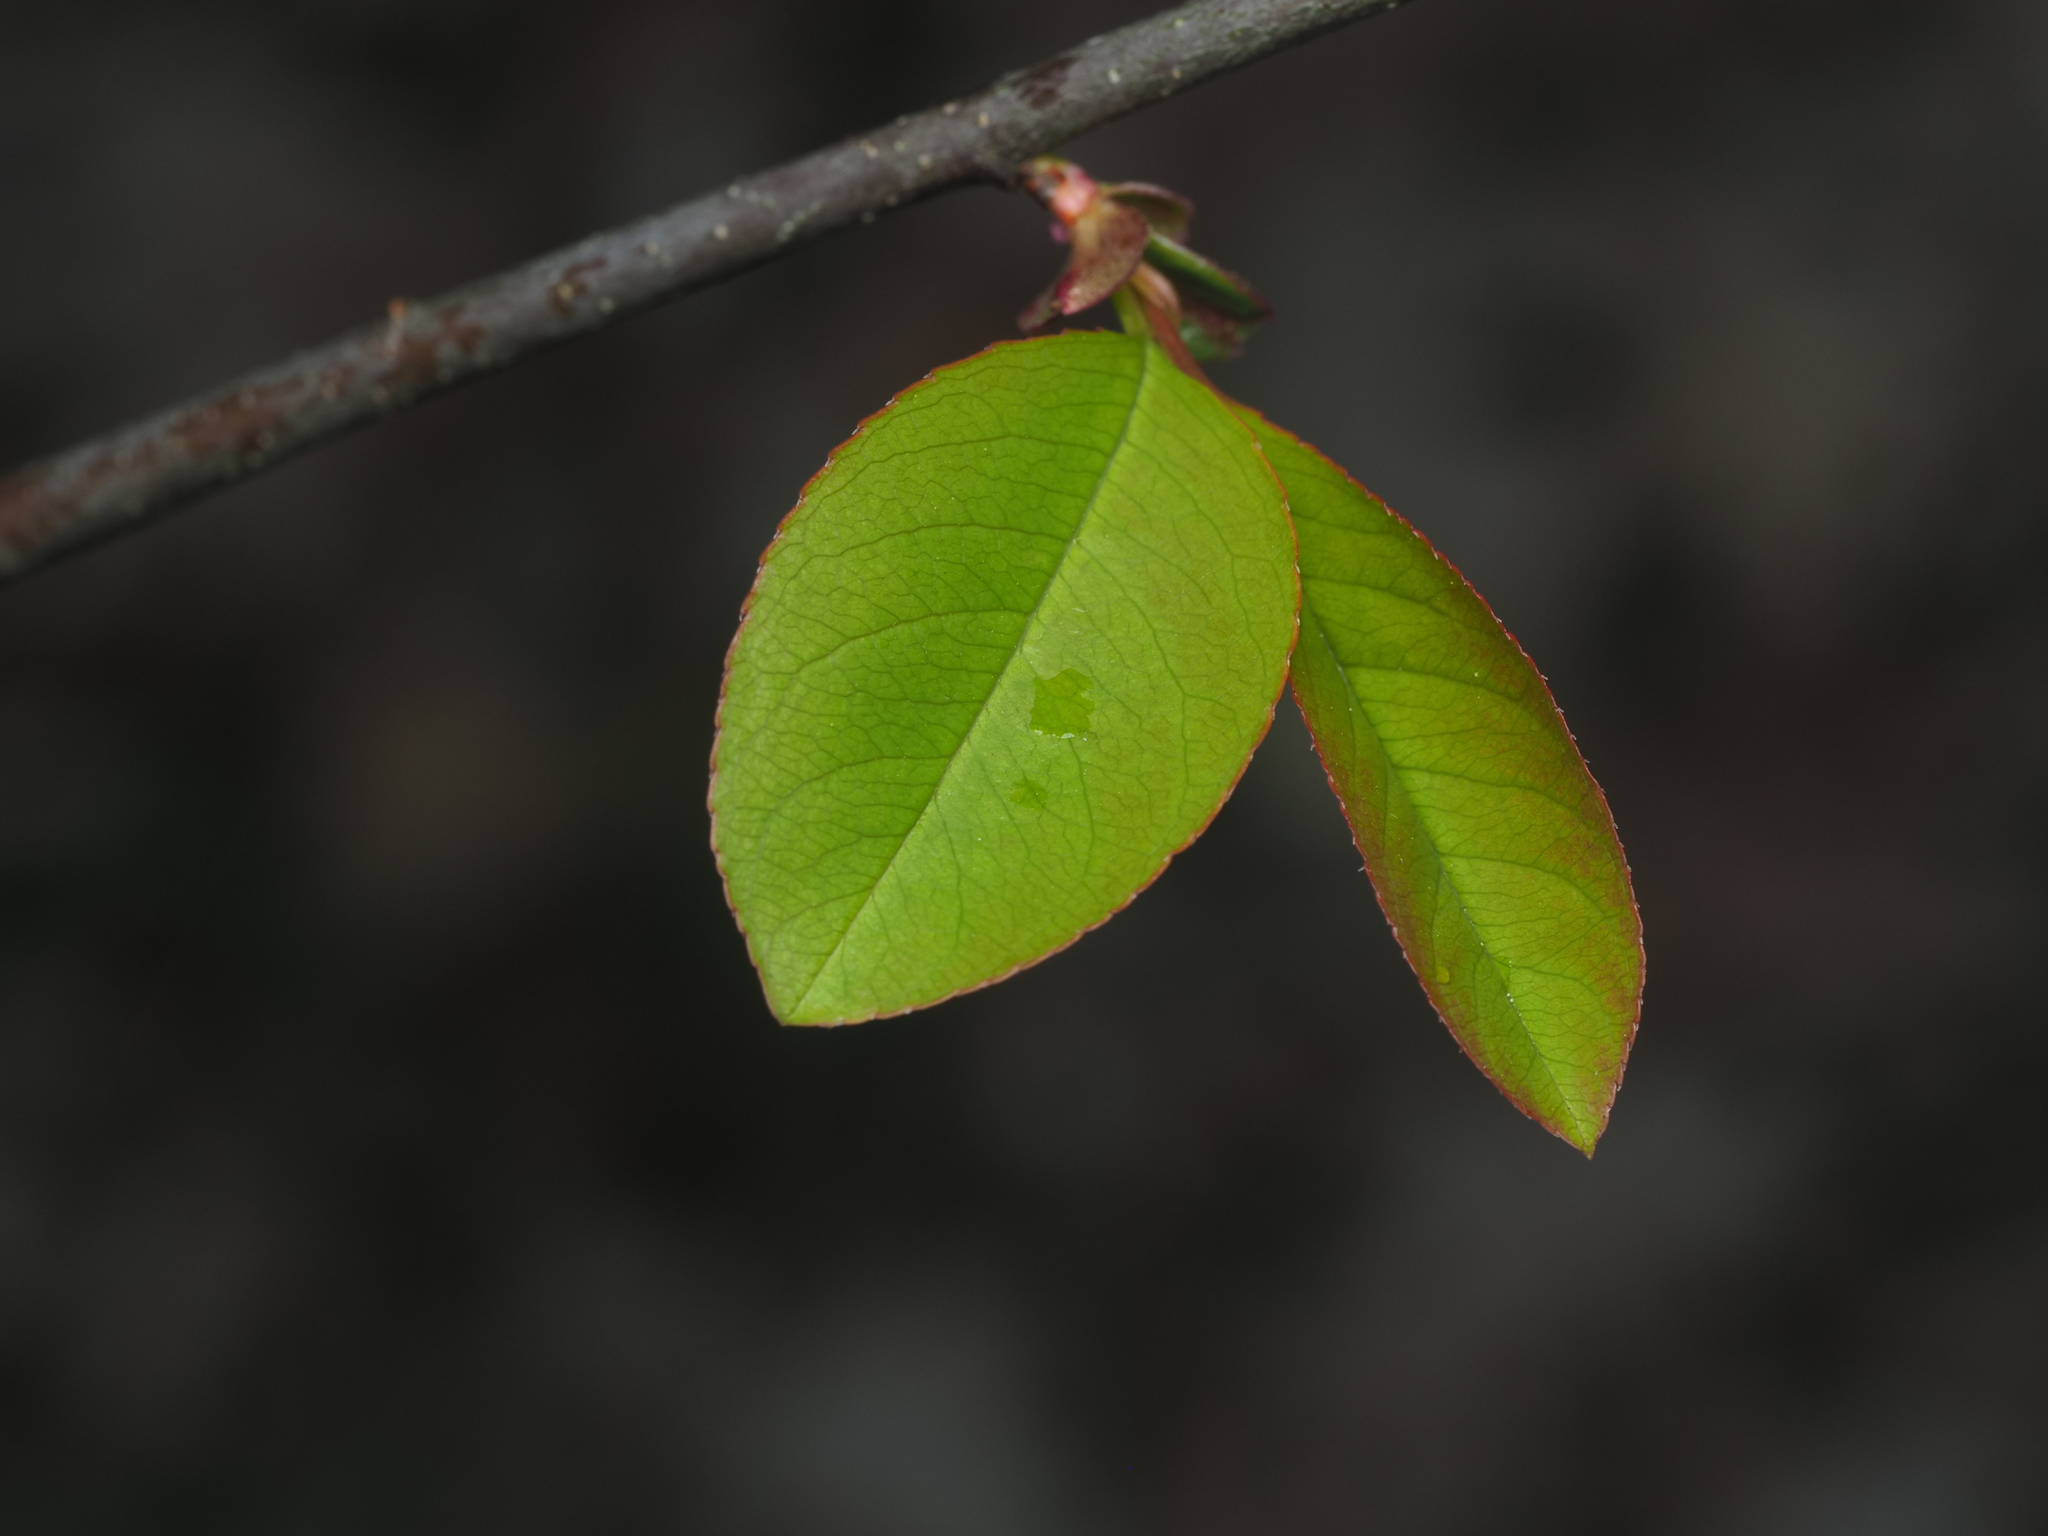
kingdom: Plantae
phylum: Tracheophyta
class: Magnoliopsida
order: Rosales
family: Rosaceae
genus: Prunus
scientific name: Prunus serotina
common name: Black cherry
